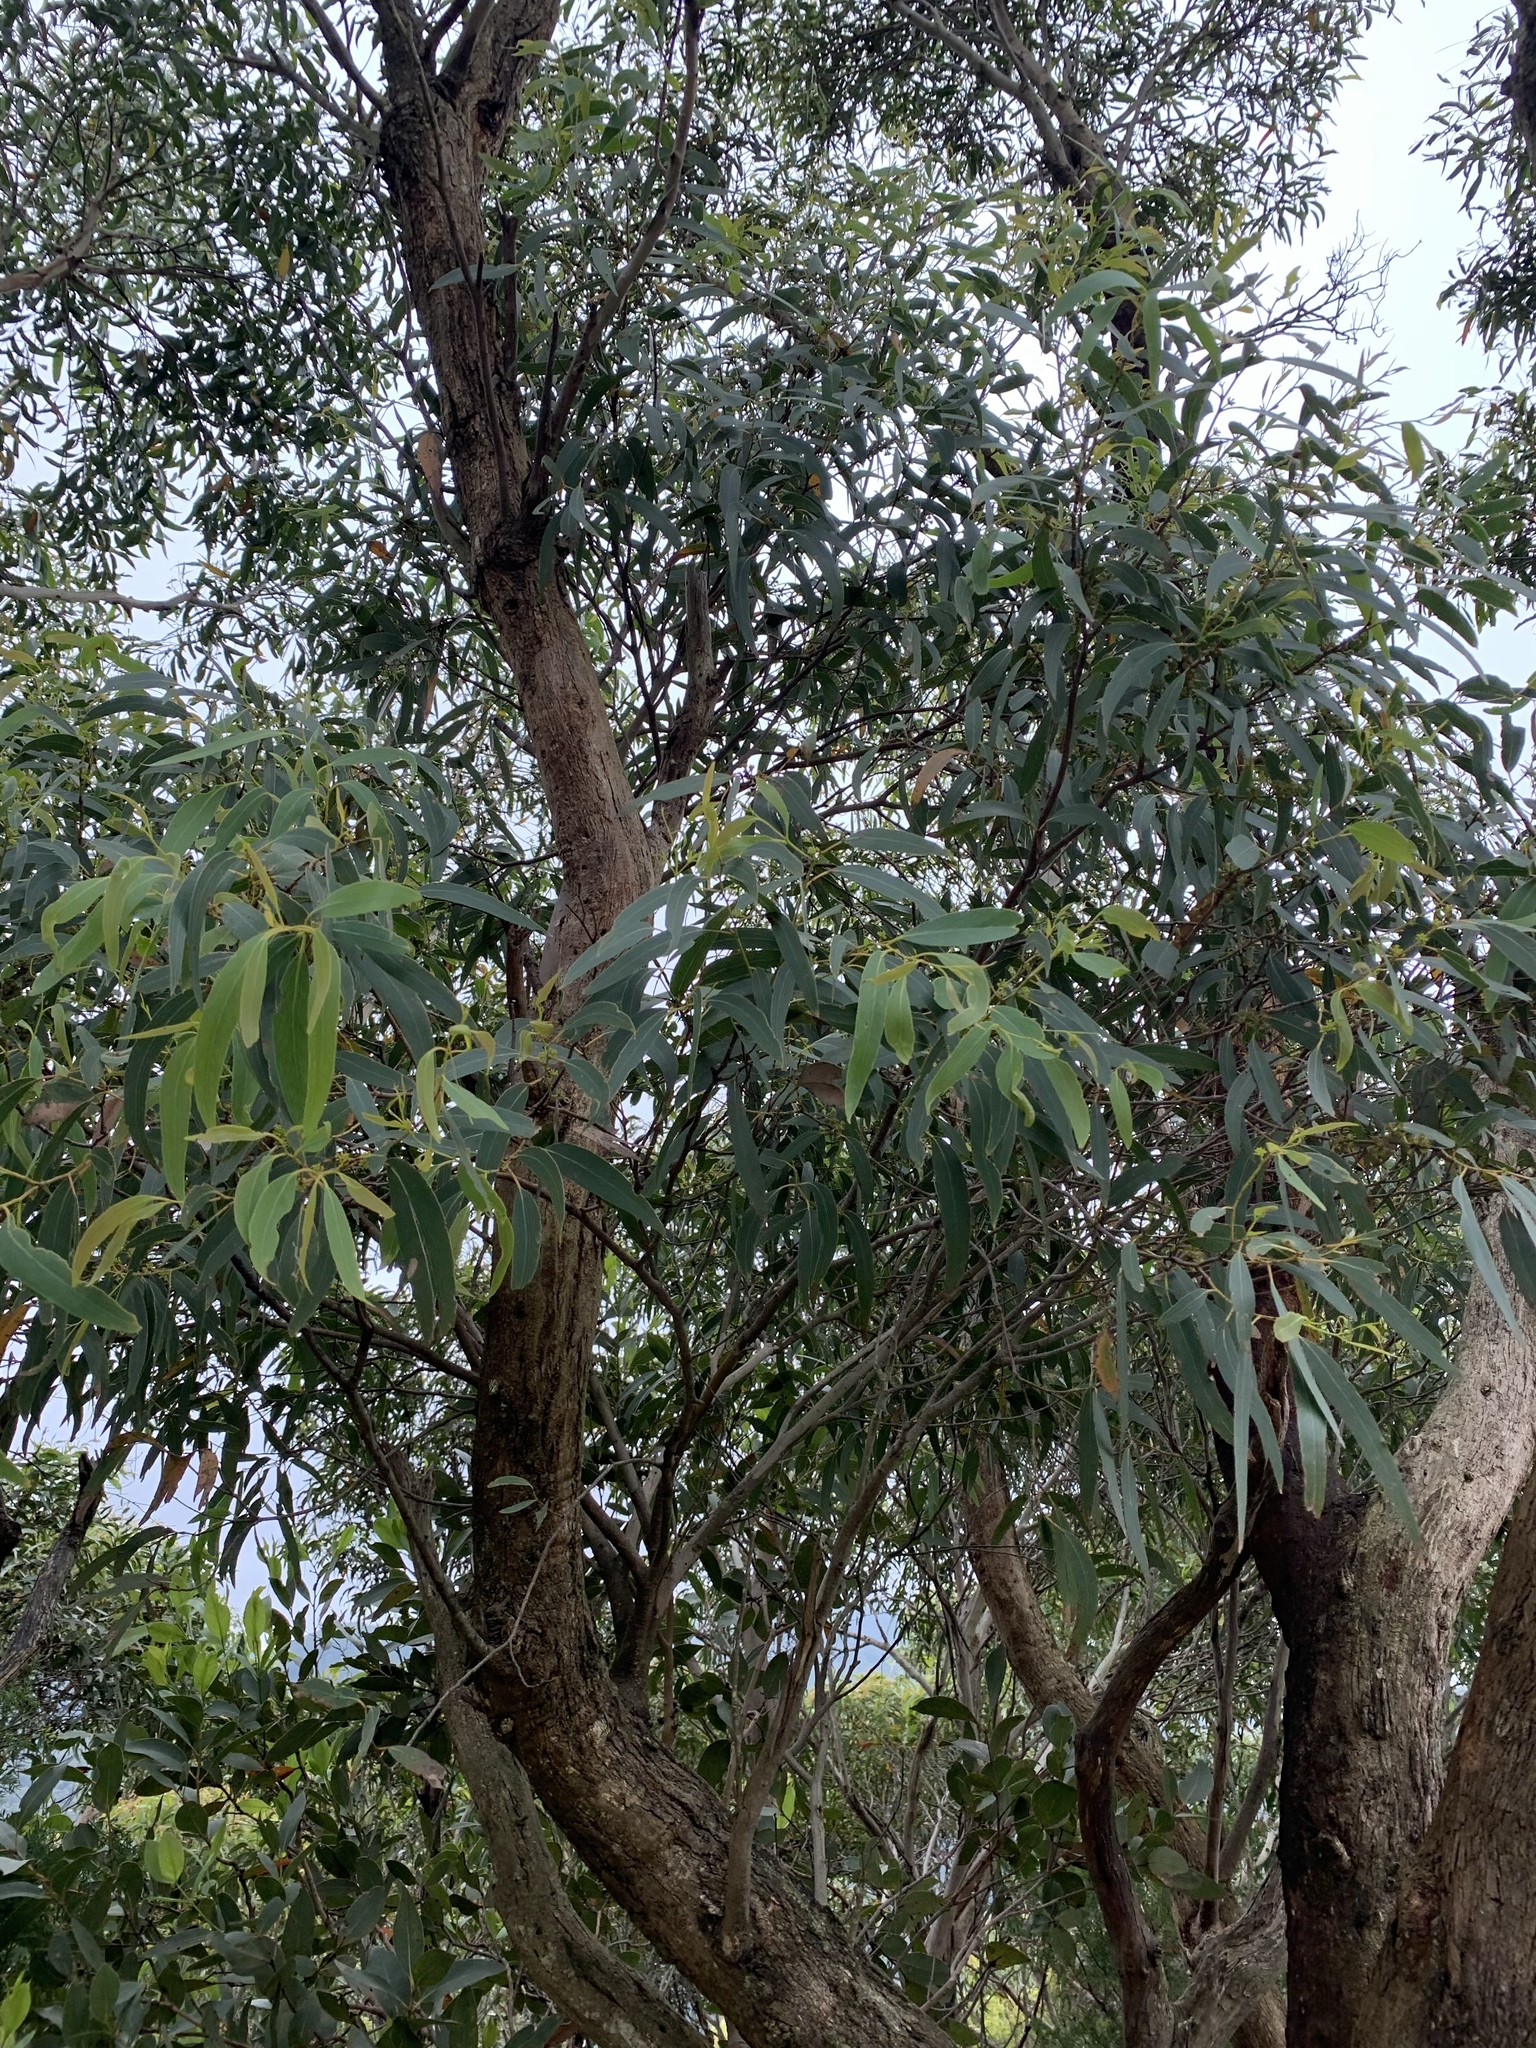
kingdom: Plantae
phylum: Tracheophyta
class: Magnoliopsida
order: Myrtales
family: Myrtaceae
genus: Eucalyptus
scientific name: Eucalyptus willisii
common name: South gippsland peppermint
